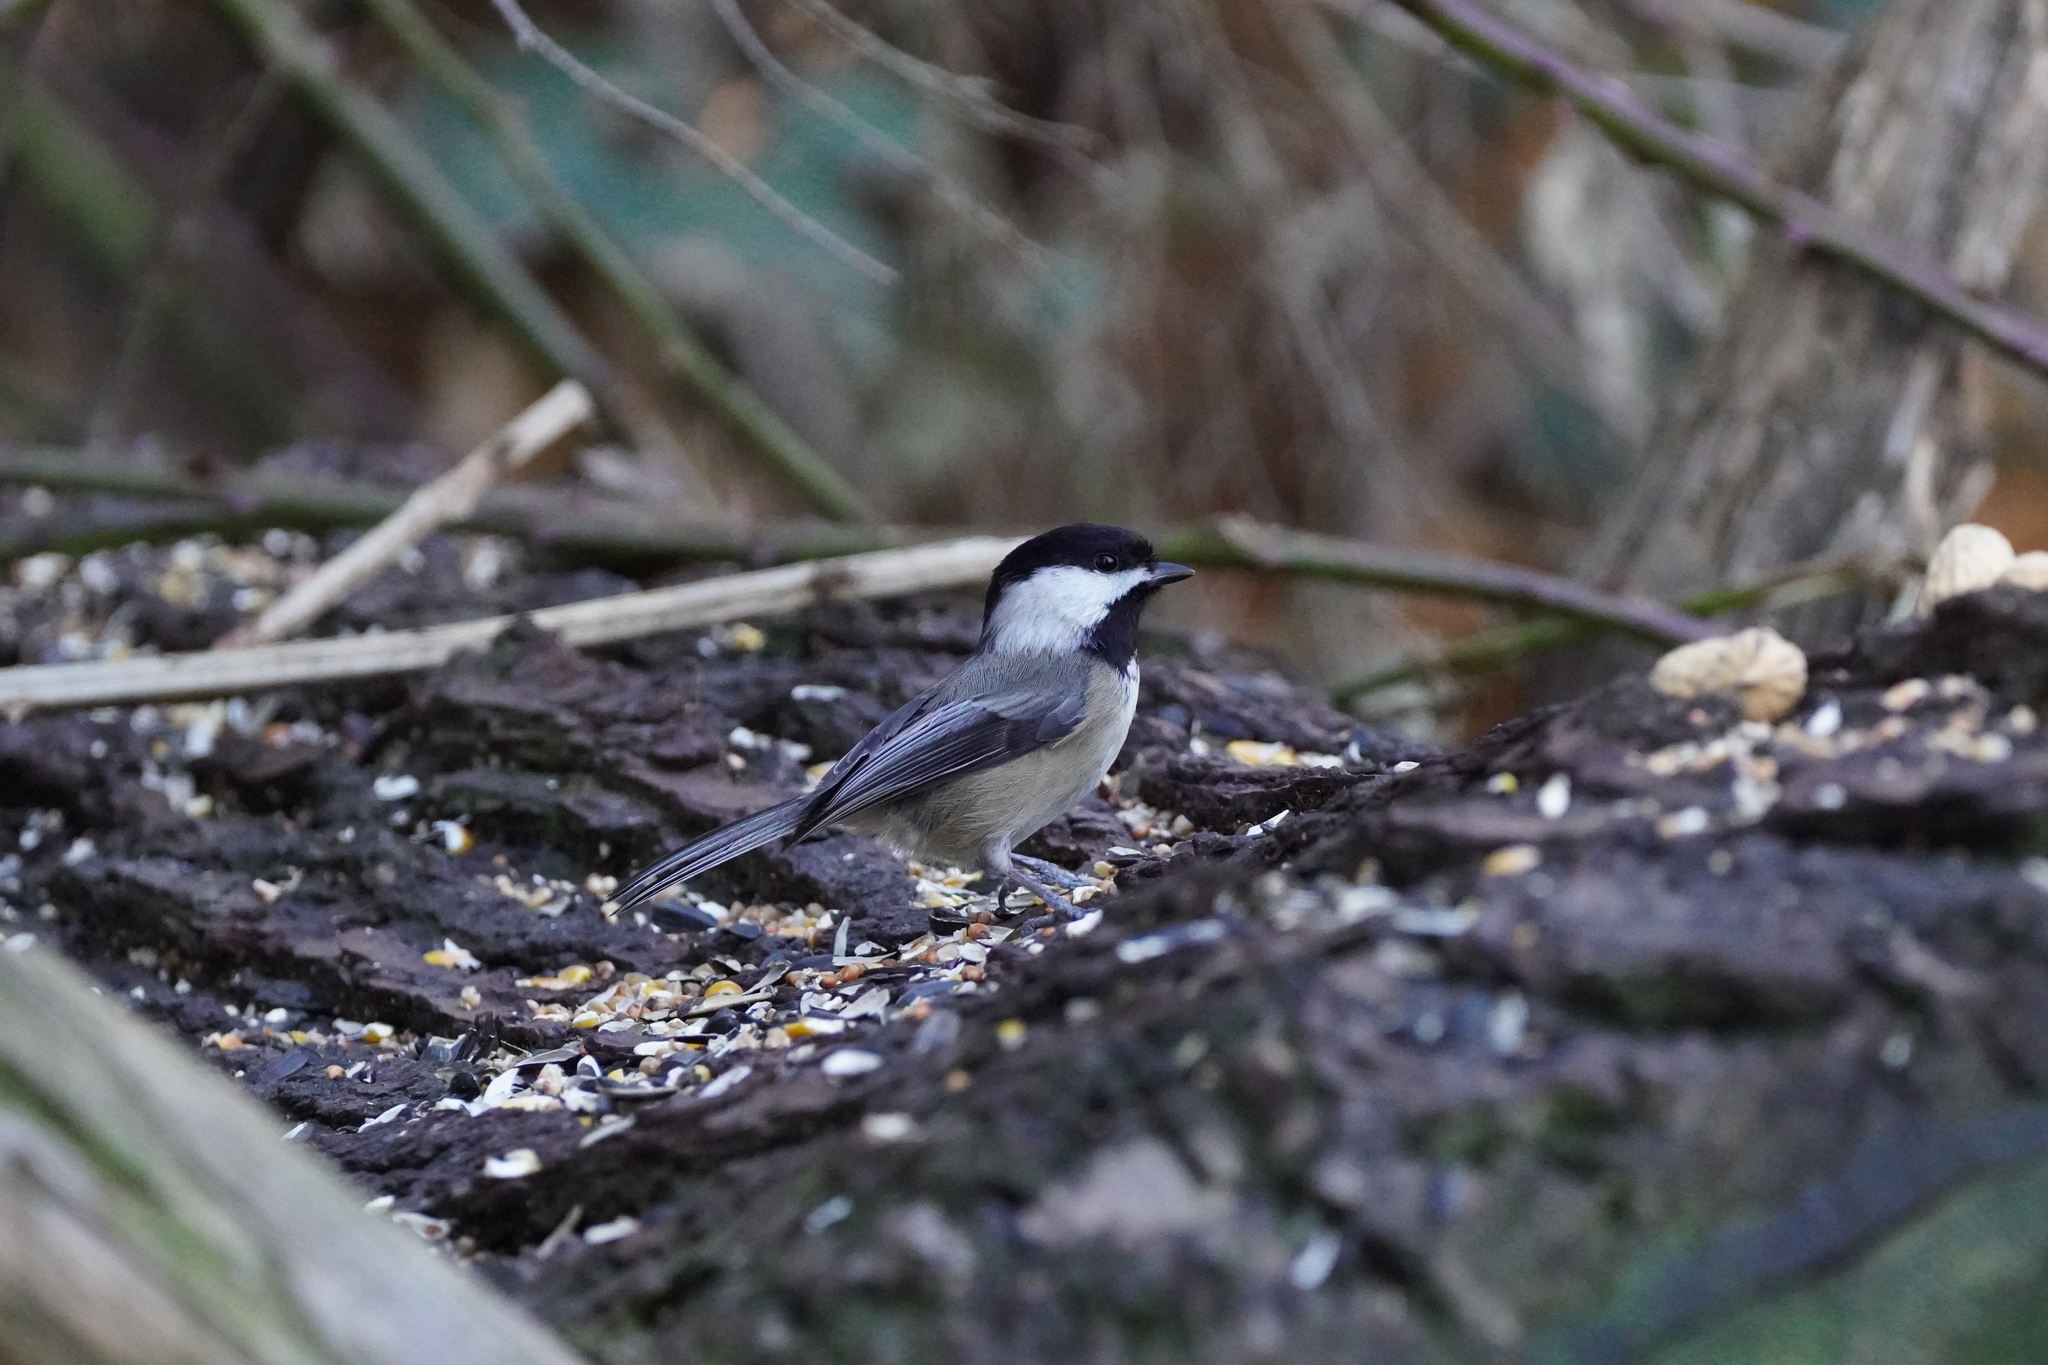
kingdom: Animalia
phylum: Chordata
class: Aves
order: Passeriformes
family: Paridae
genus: Poecile
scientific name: Poecile atricapillus
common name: Black-capped chickadee
